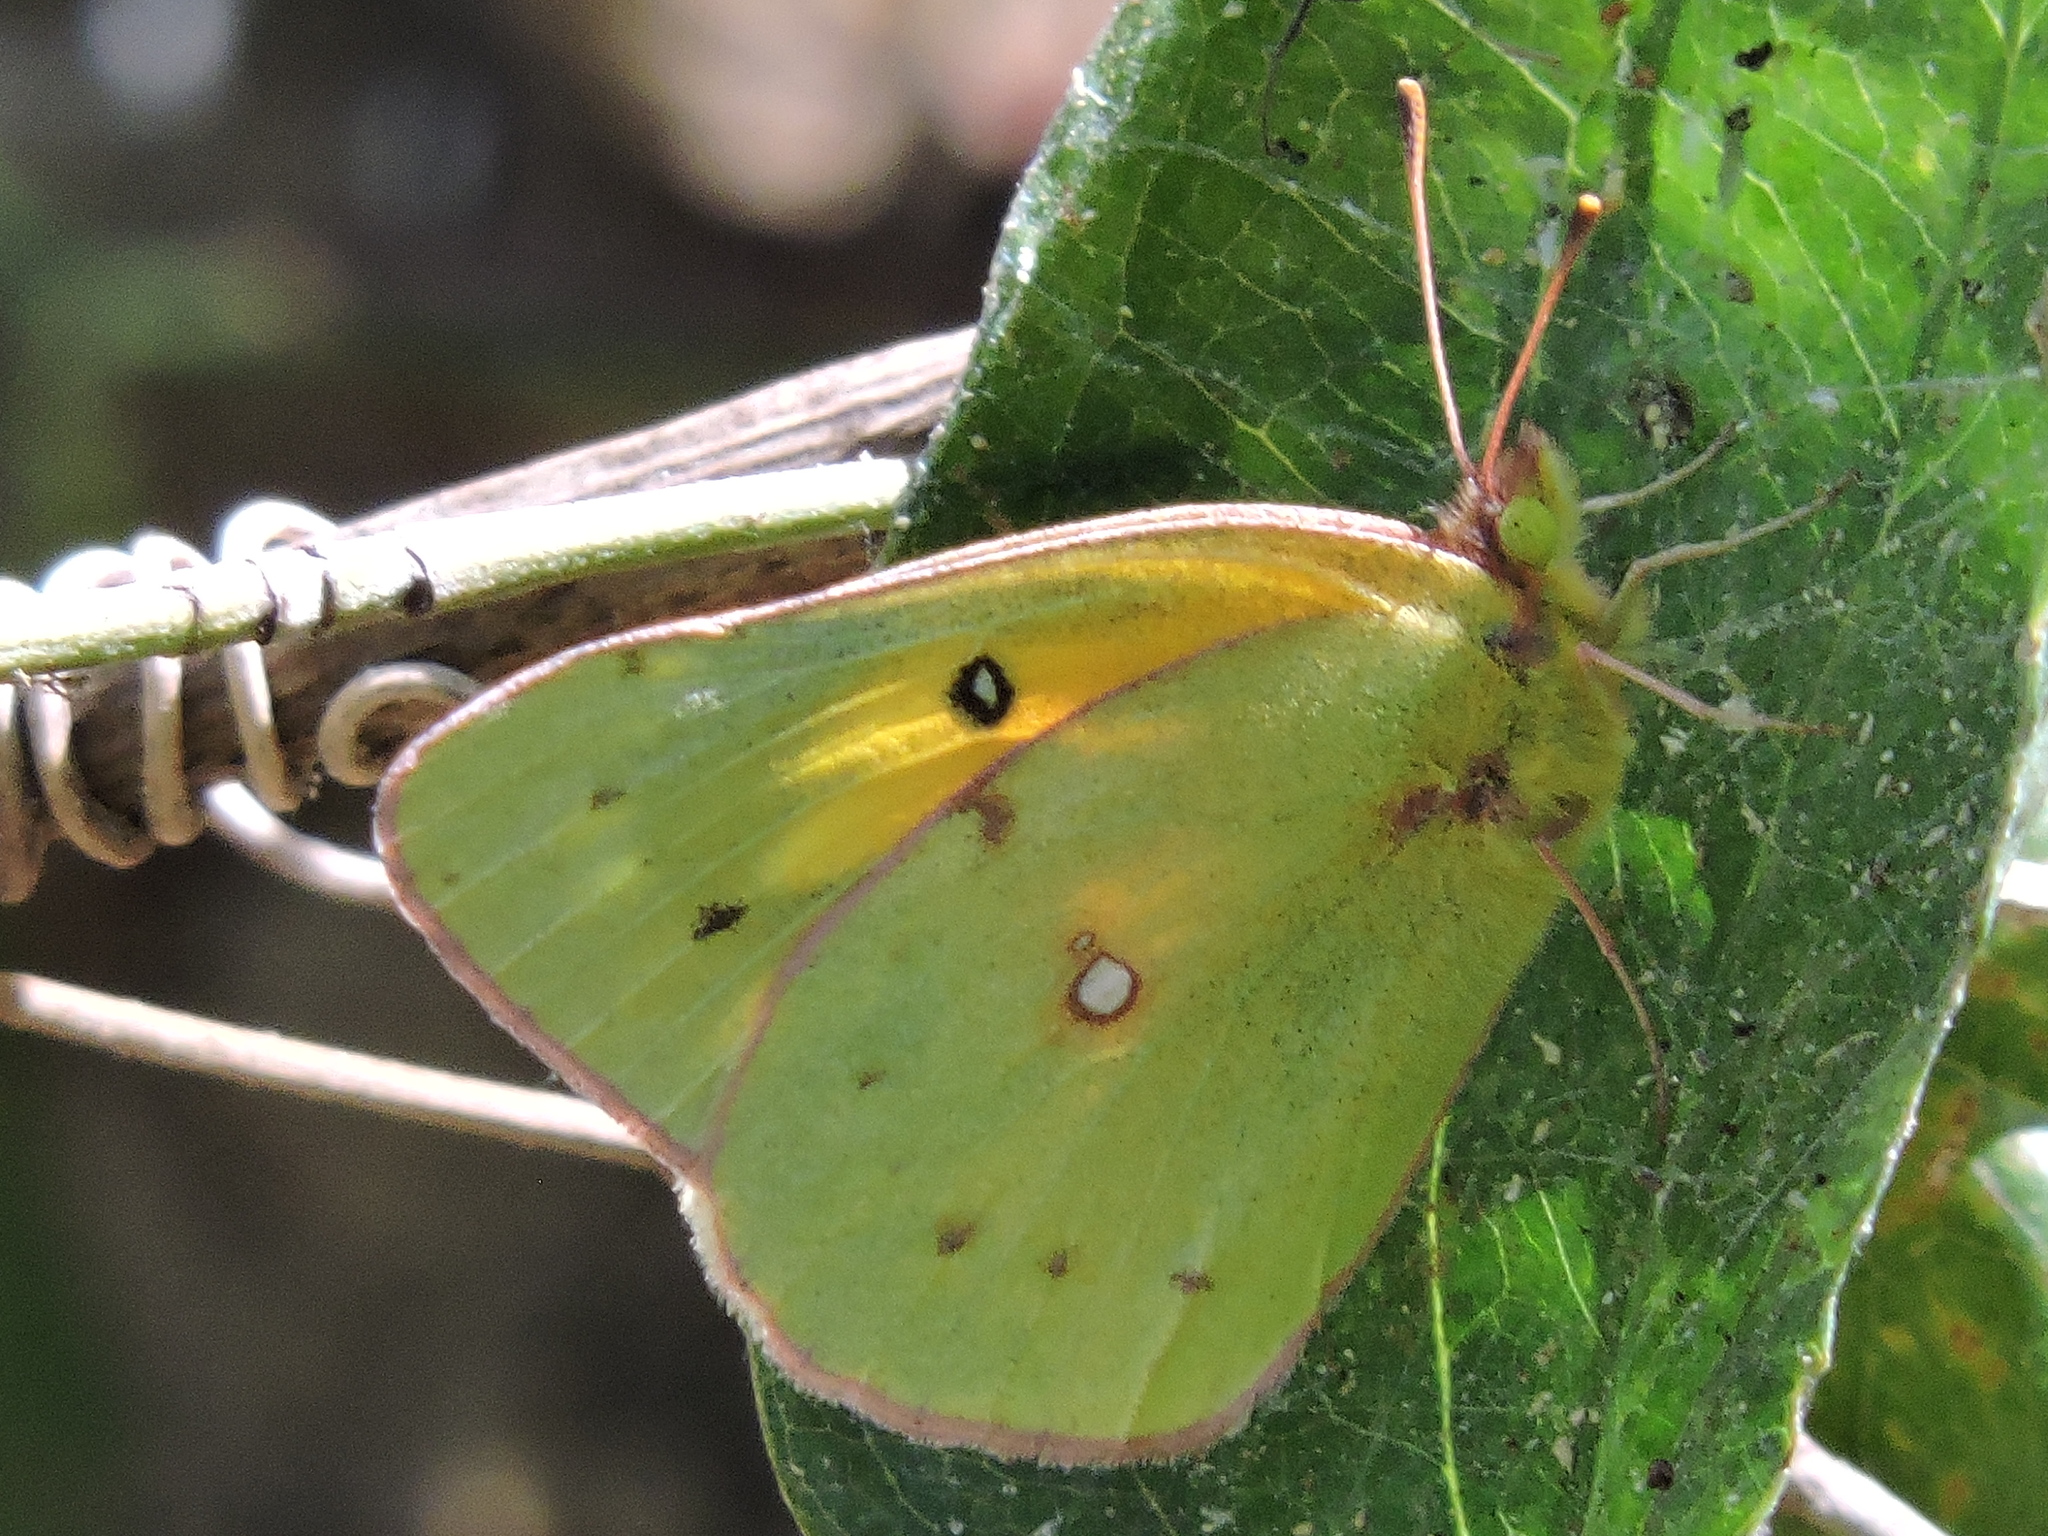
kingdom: Animalia
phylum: Arthropoda
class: Insecta
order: Lepidoptera
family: Pieridae
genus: Colias
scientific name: Colias eurytheme
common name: Alfalfa butterfly
